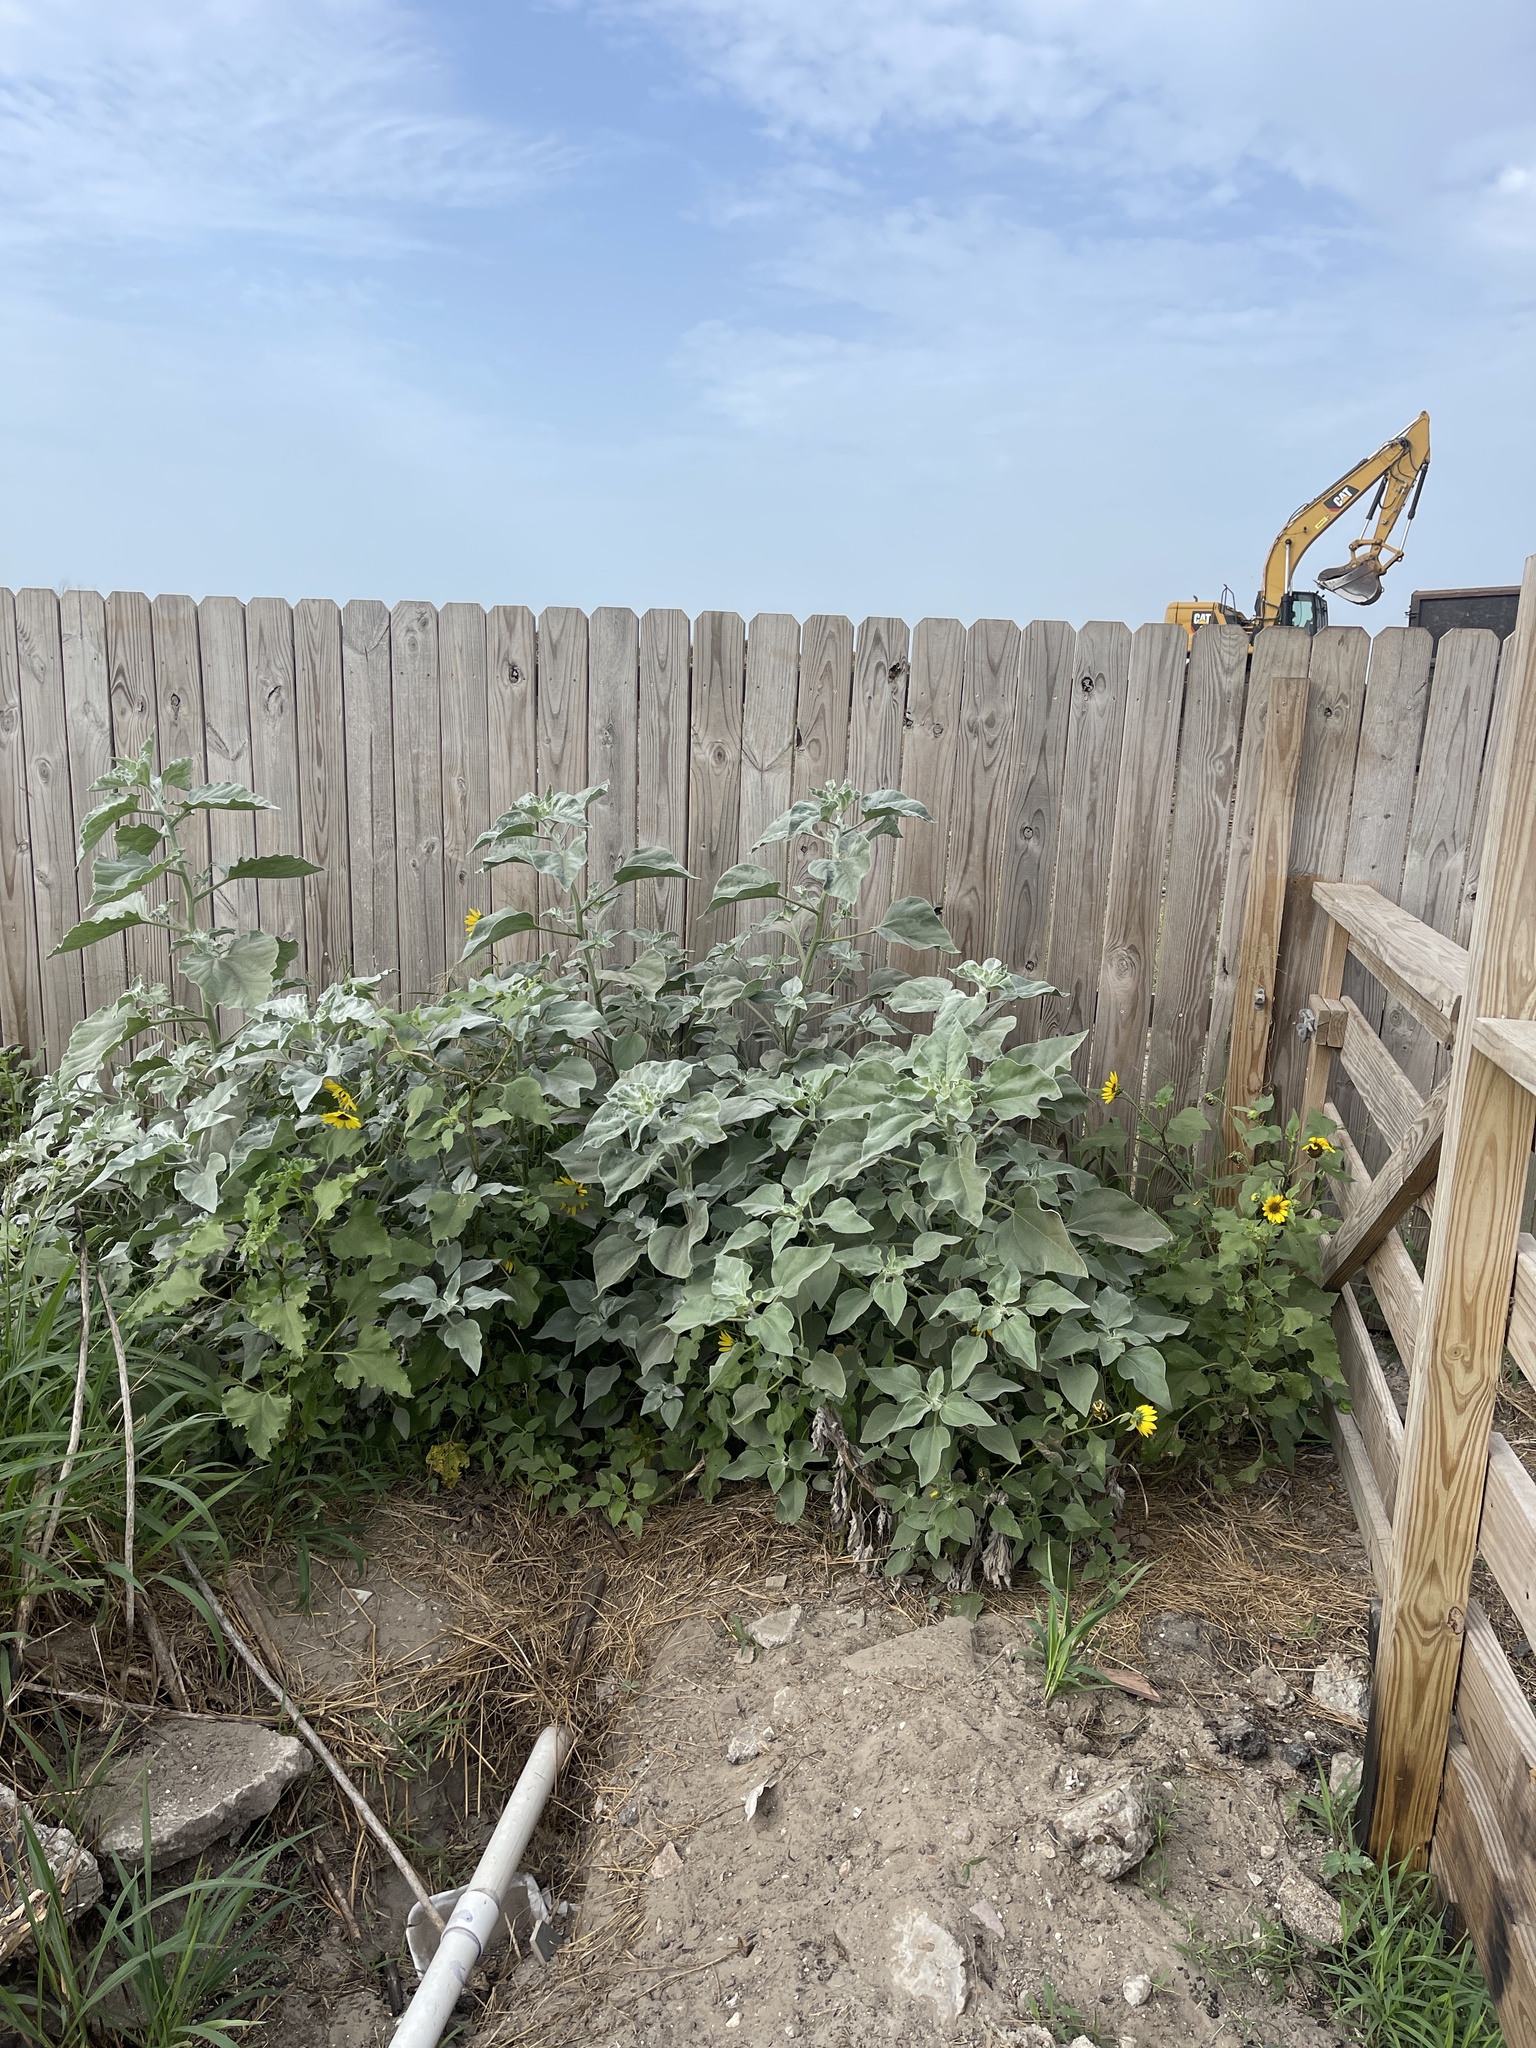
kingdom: Plantae
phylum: Tracheophyta
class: Magnoliopsida
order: Asterales
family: Asteraceae
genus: Helianthus
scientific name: Helianthus argophyllus
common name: Silverleaf sunflower
